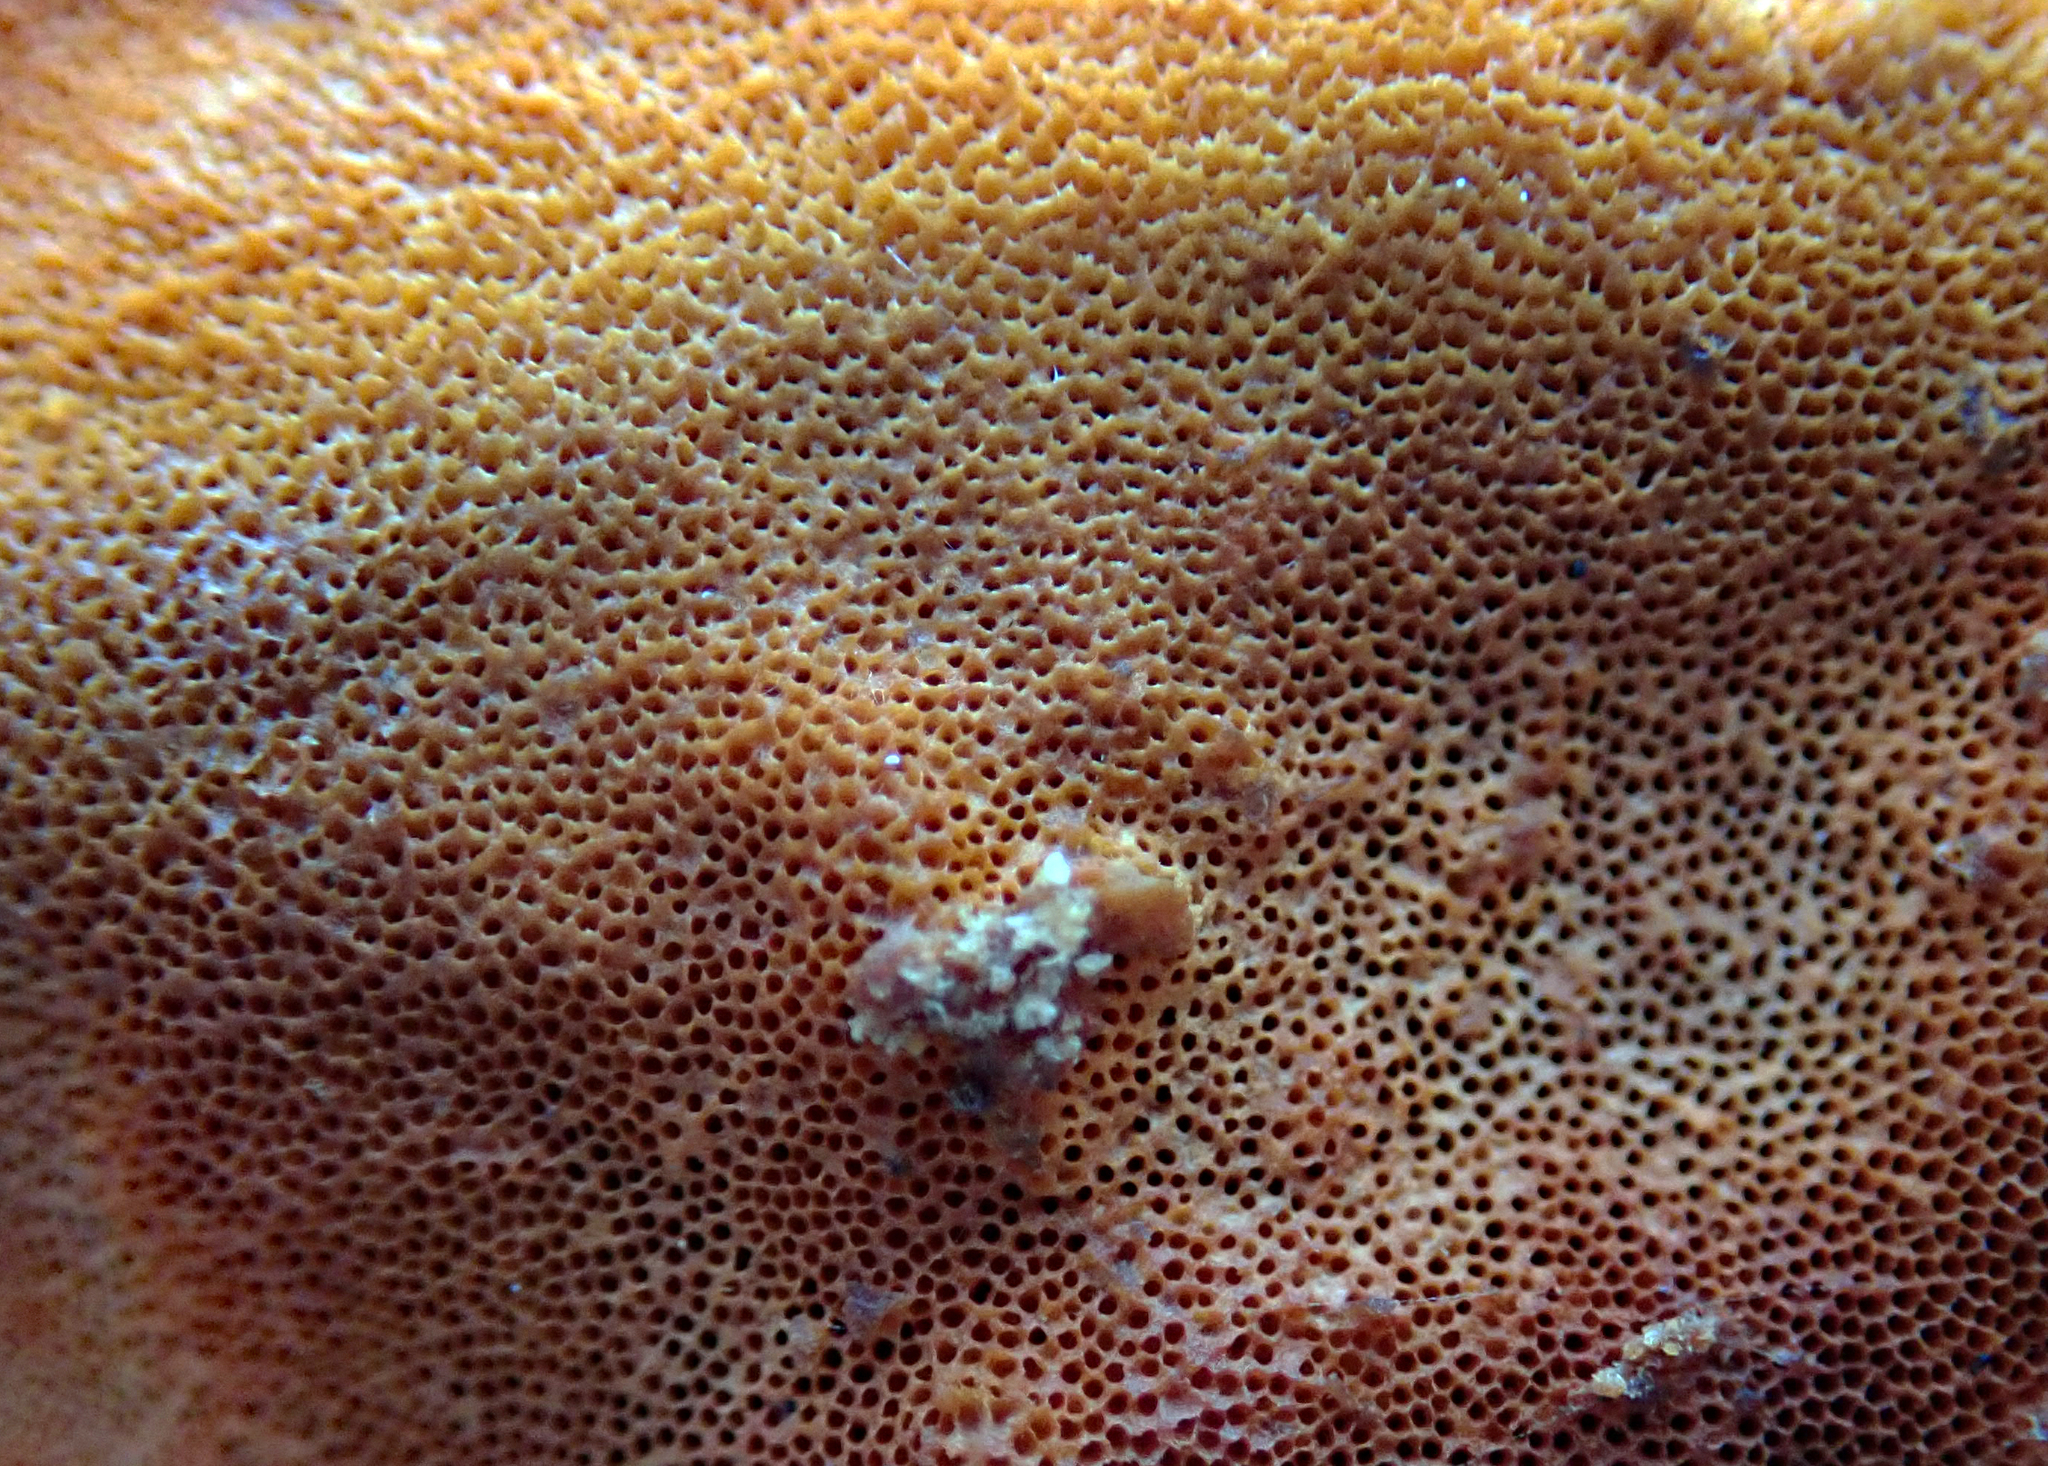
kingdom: Fungi
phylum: Basidiomycota
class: Agaricomycetes
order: Polyporales
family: Polyporaceae
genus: Trametes
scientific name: Trametes coccinea
